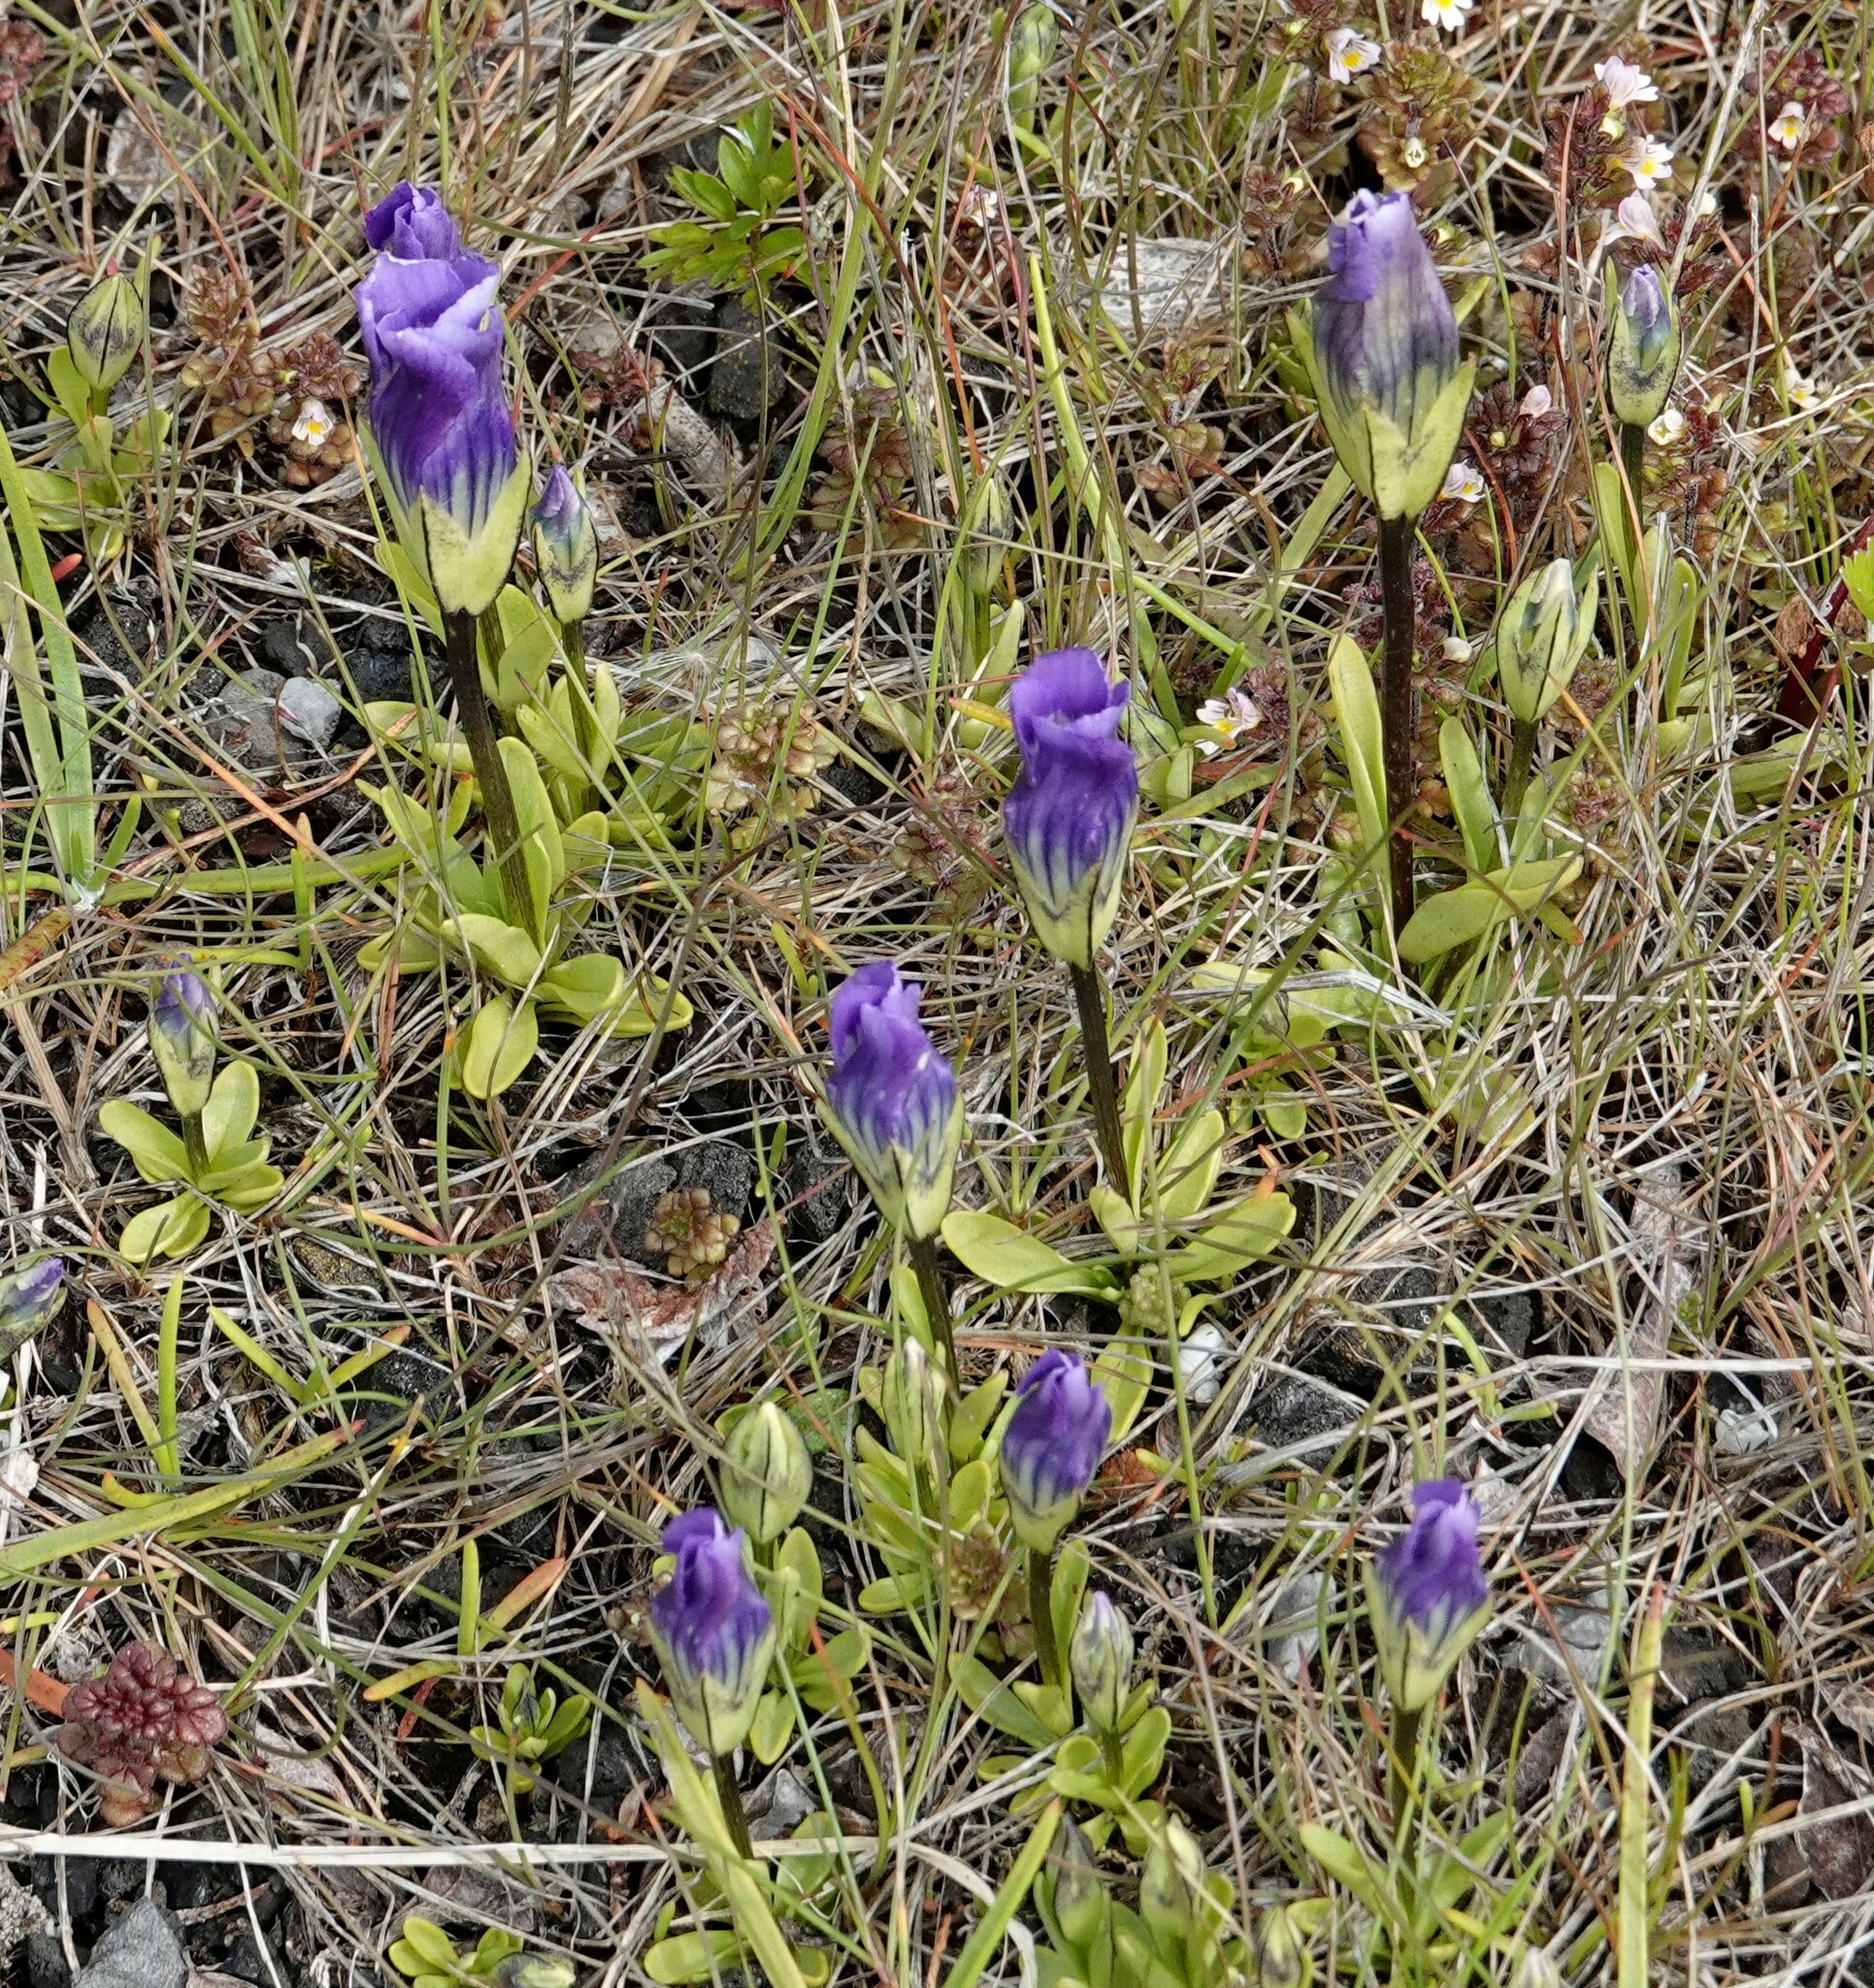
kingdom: Plantae
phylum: Tracheophyta
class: Magnoliopsida
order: Gentianales
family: Gentianaceae
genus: Gentianopsis
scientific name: Gentianopsis nesophila
